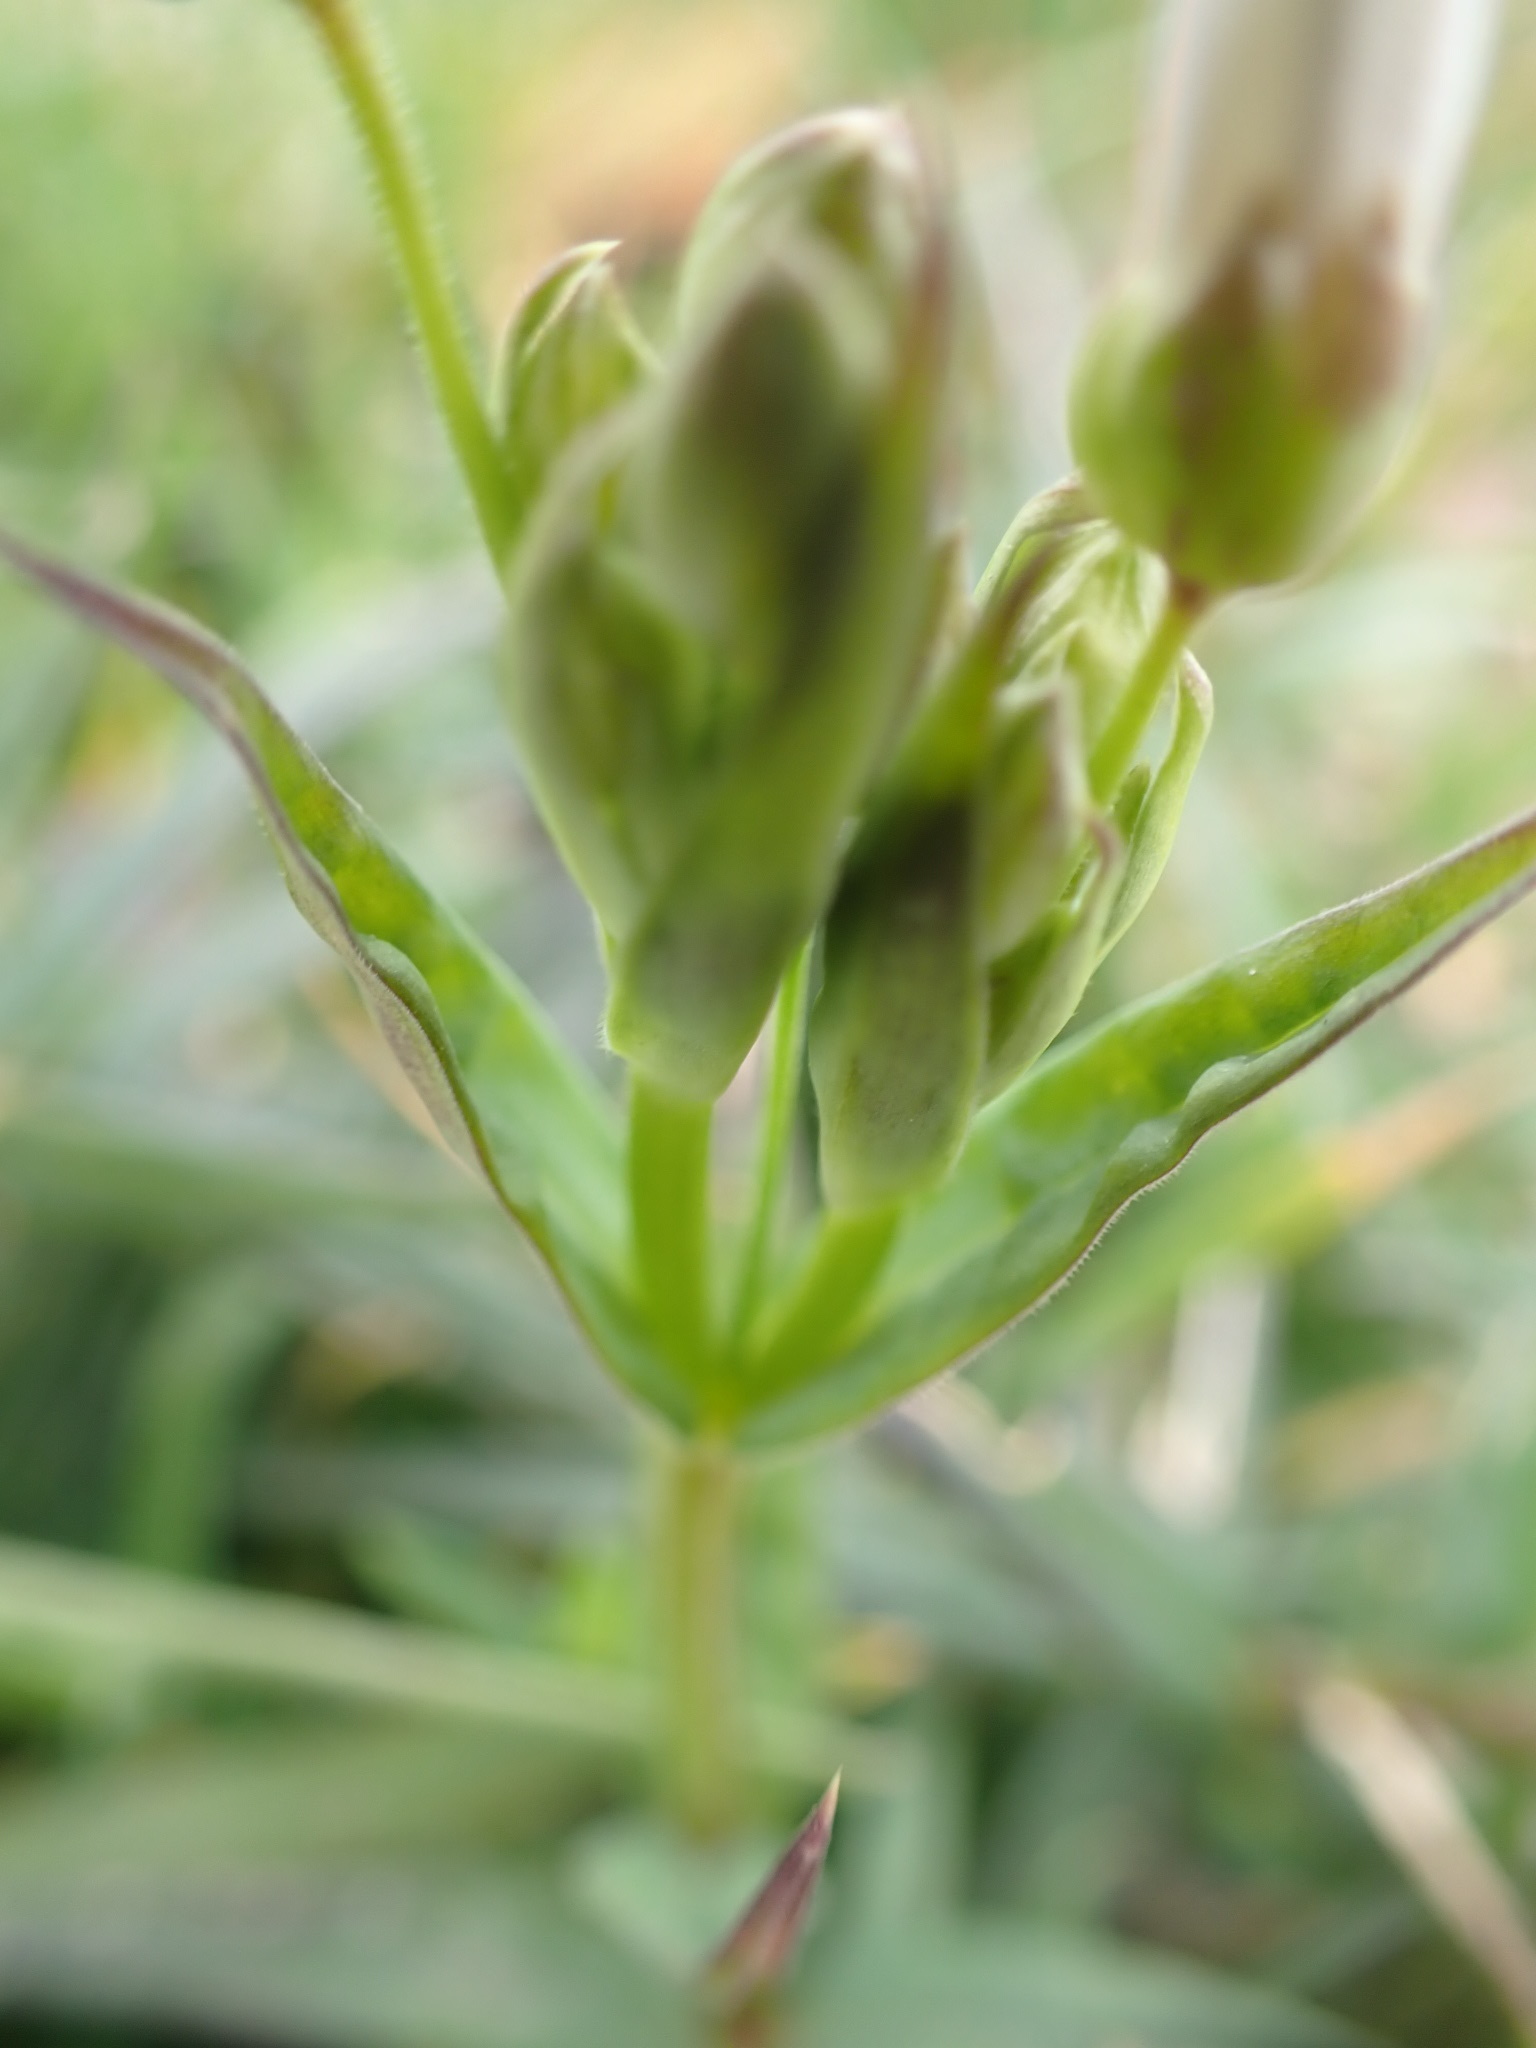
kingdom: Plantae
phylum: Tracheophyta
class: Magnoliopsida
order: Caryophyllales
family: Caryophyllaceae
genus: Rabelera
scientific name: Rabelera holostea
